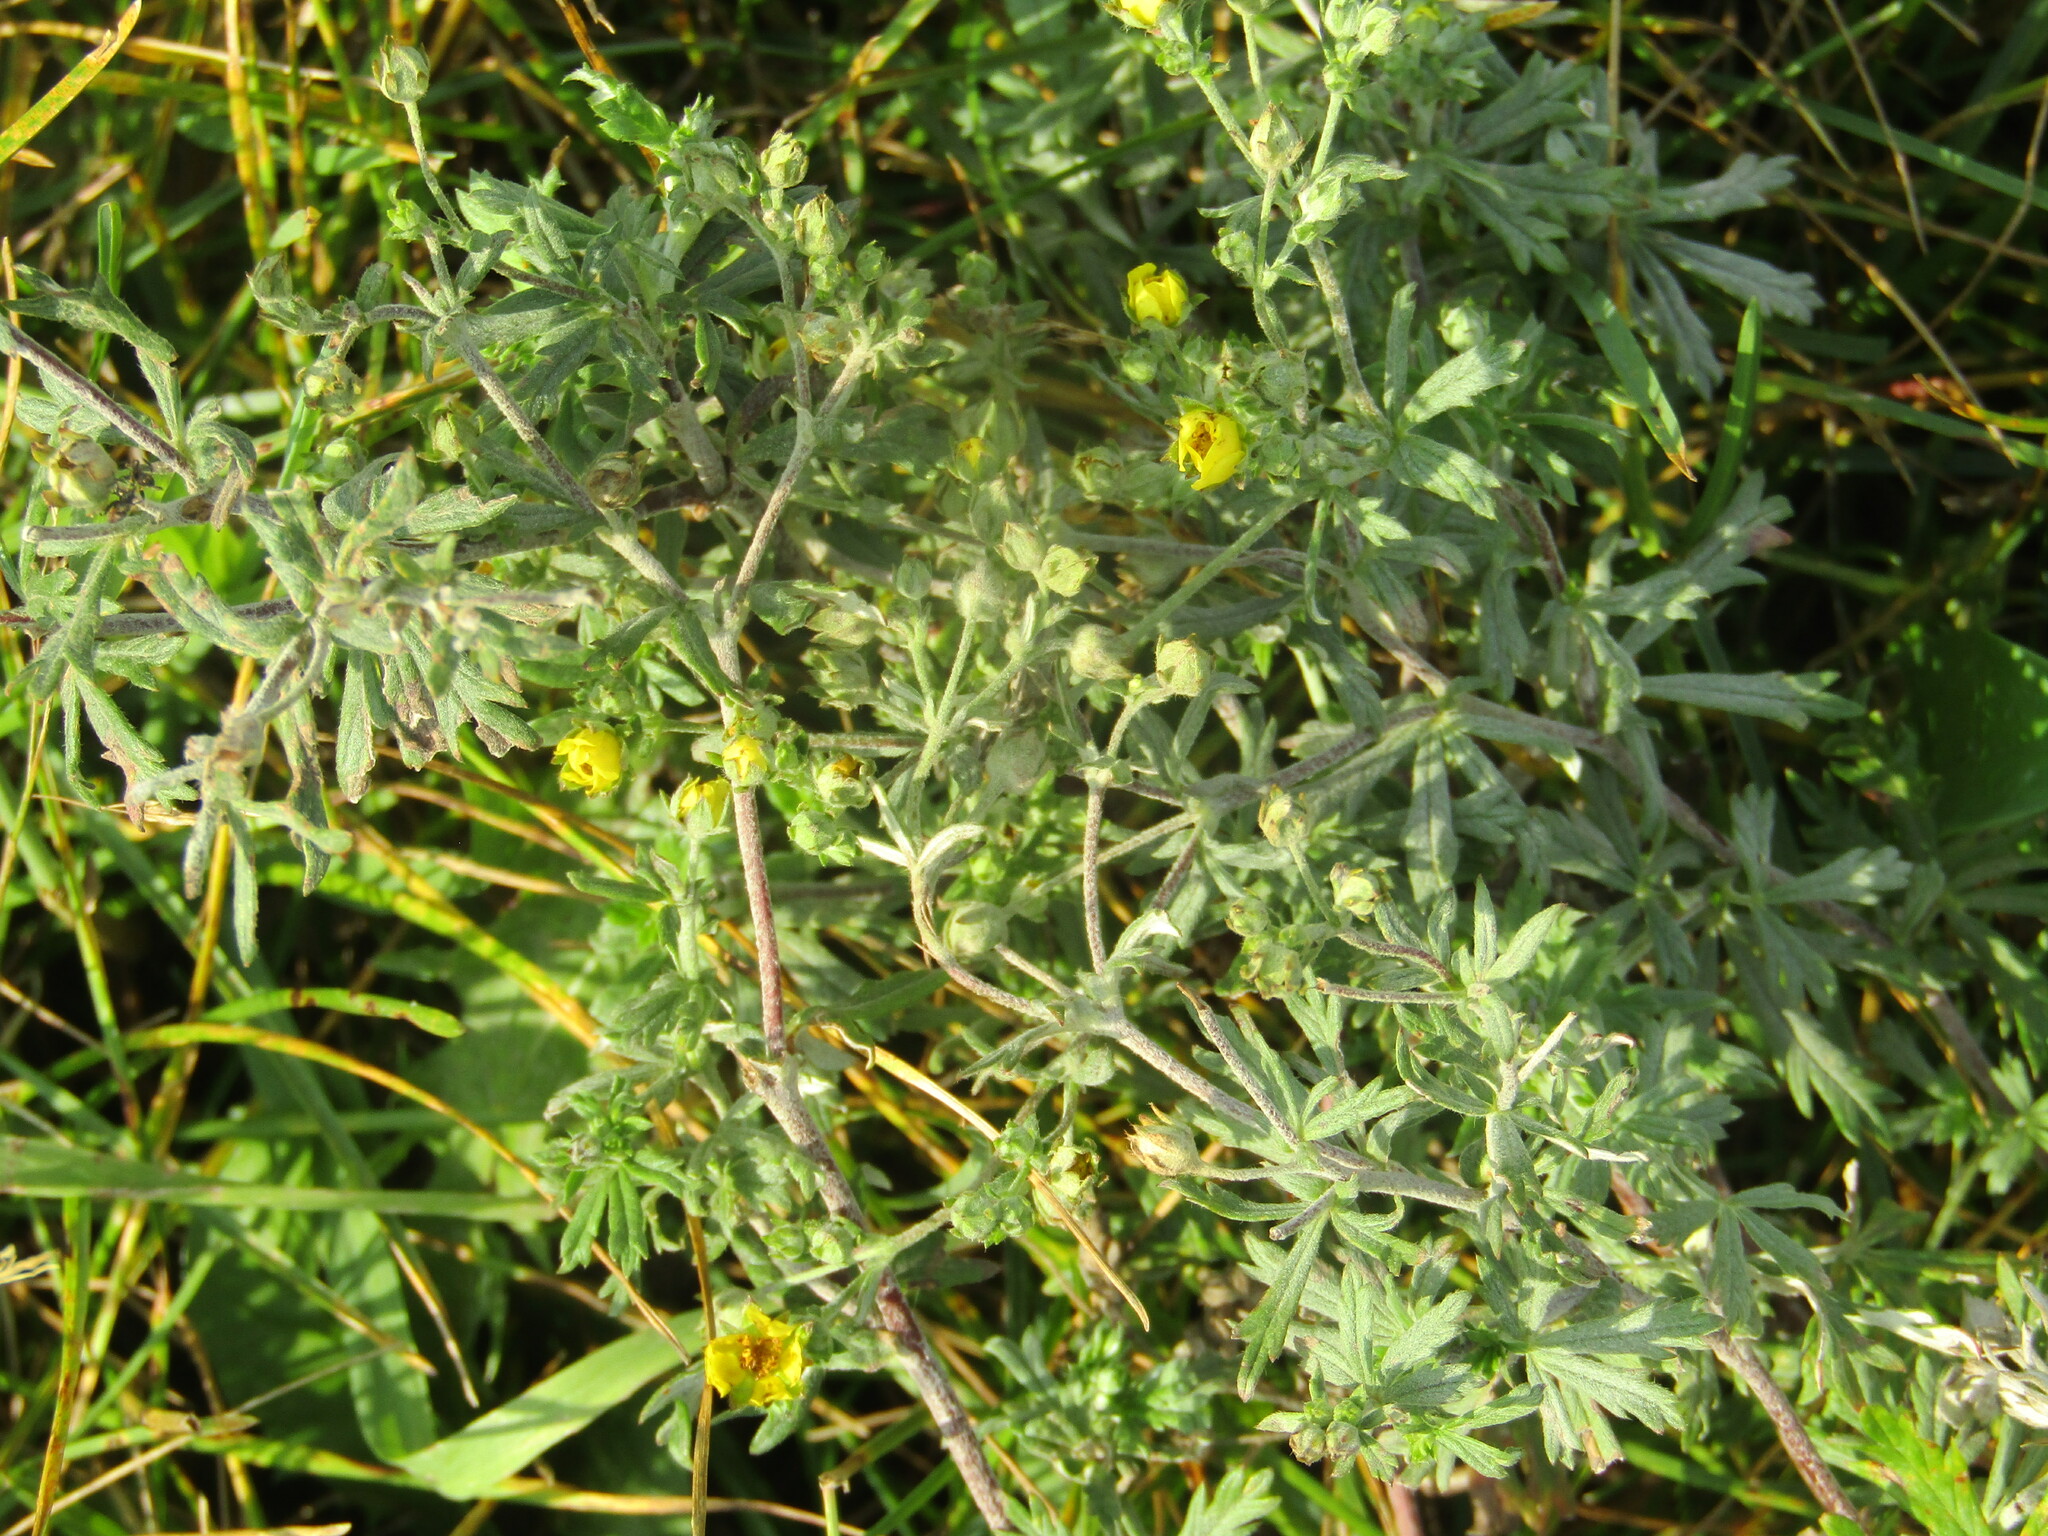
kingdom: Plantae
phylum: Tracheophyta
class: Magnoliopsida
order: Rosales
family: Rosaceae
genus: Potentilla
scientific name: Potentilla argentea
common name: Hoary cinquefoil
